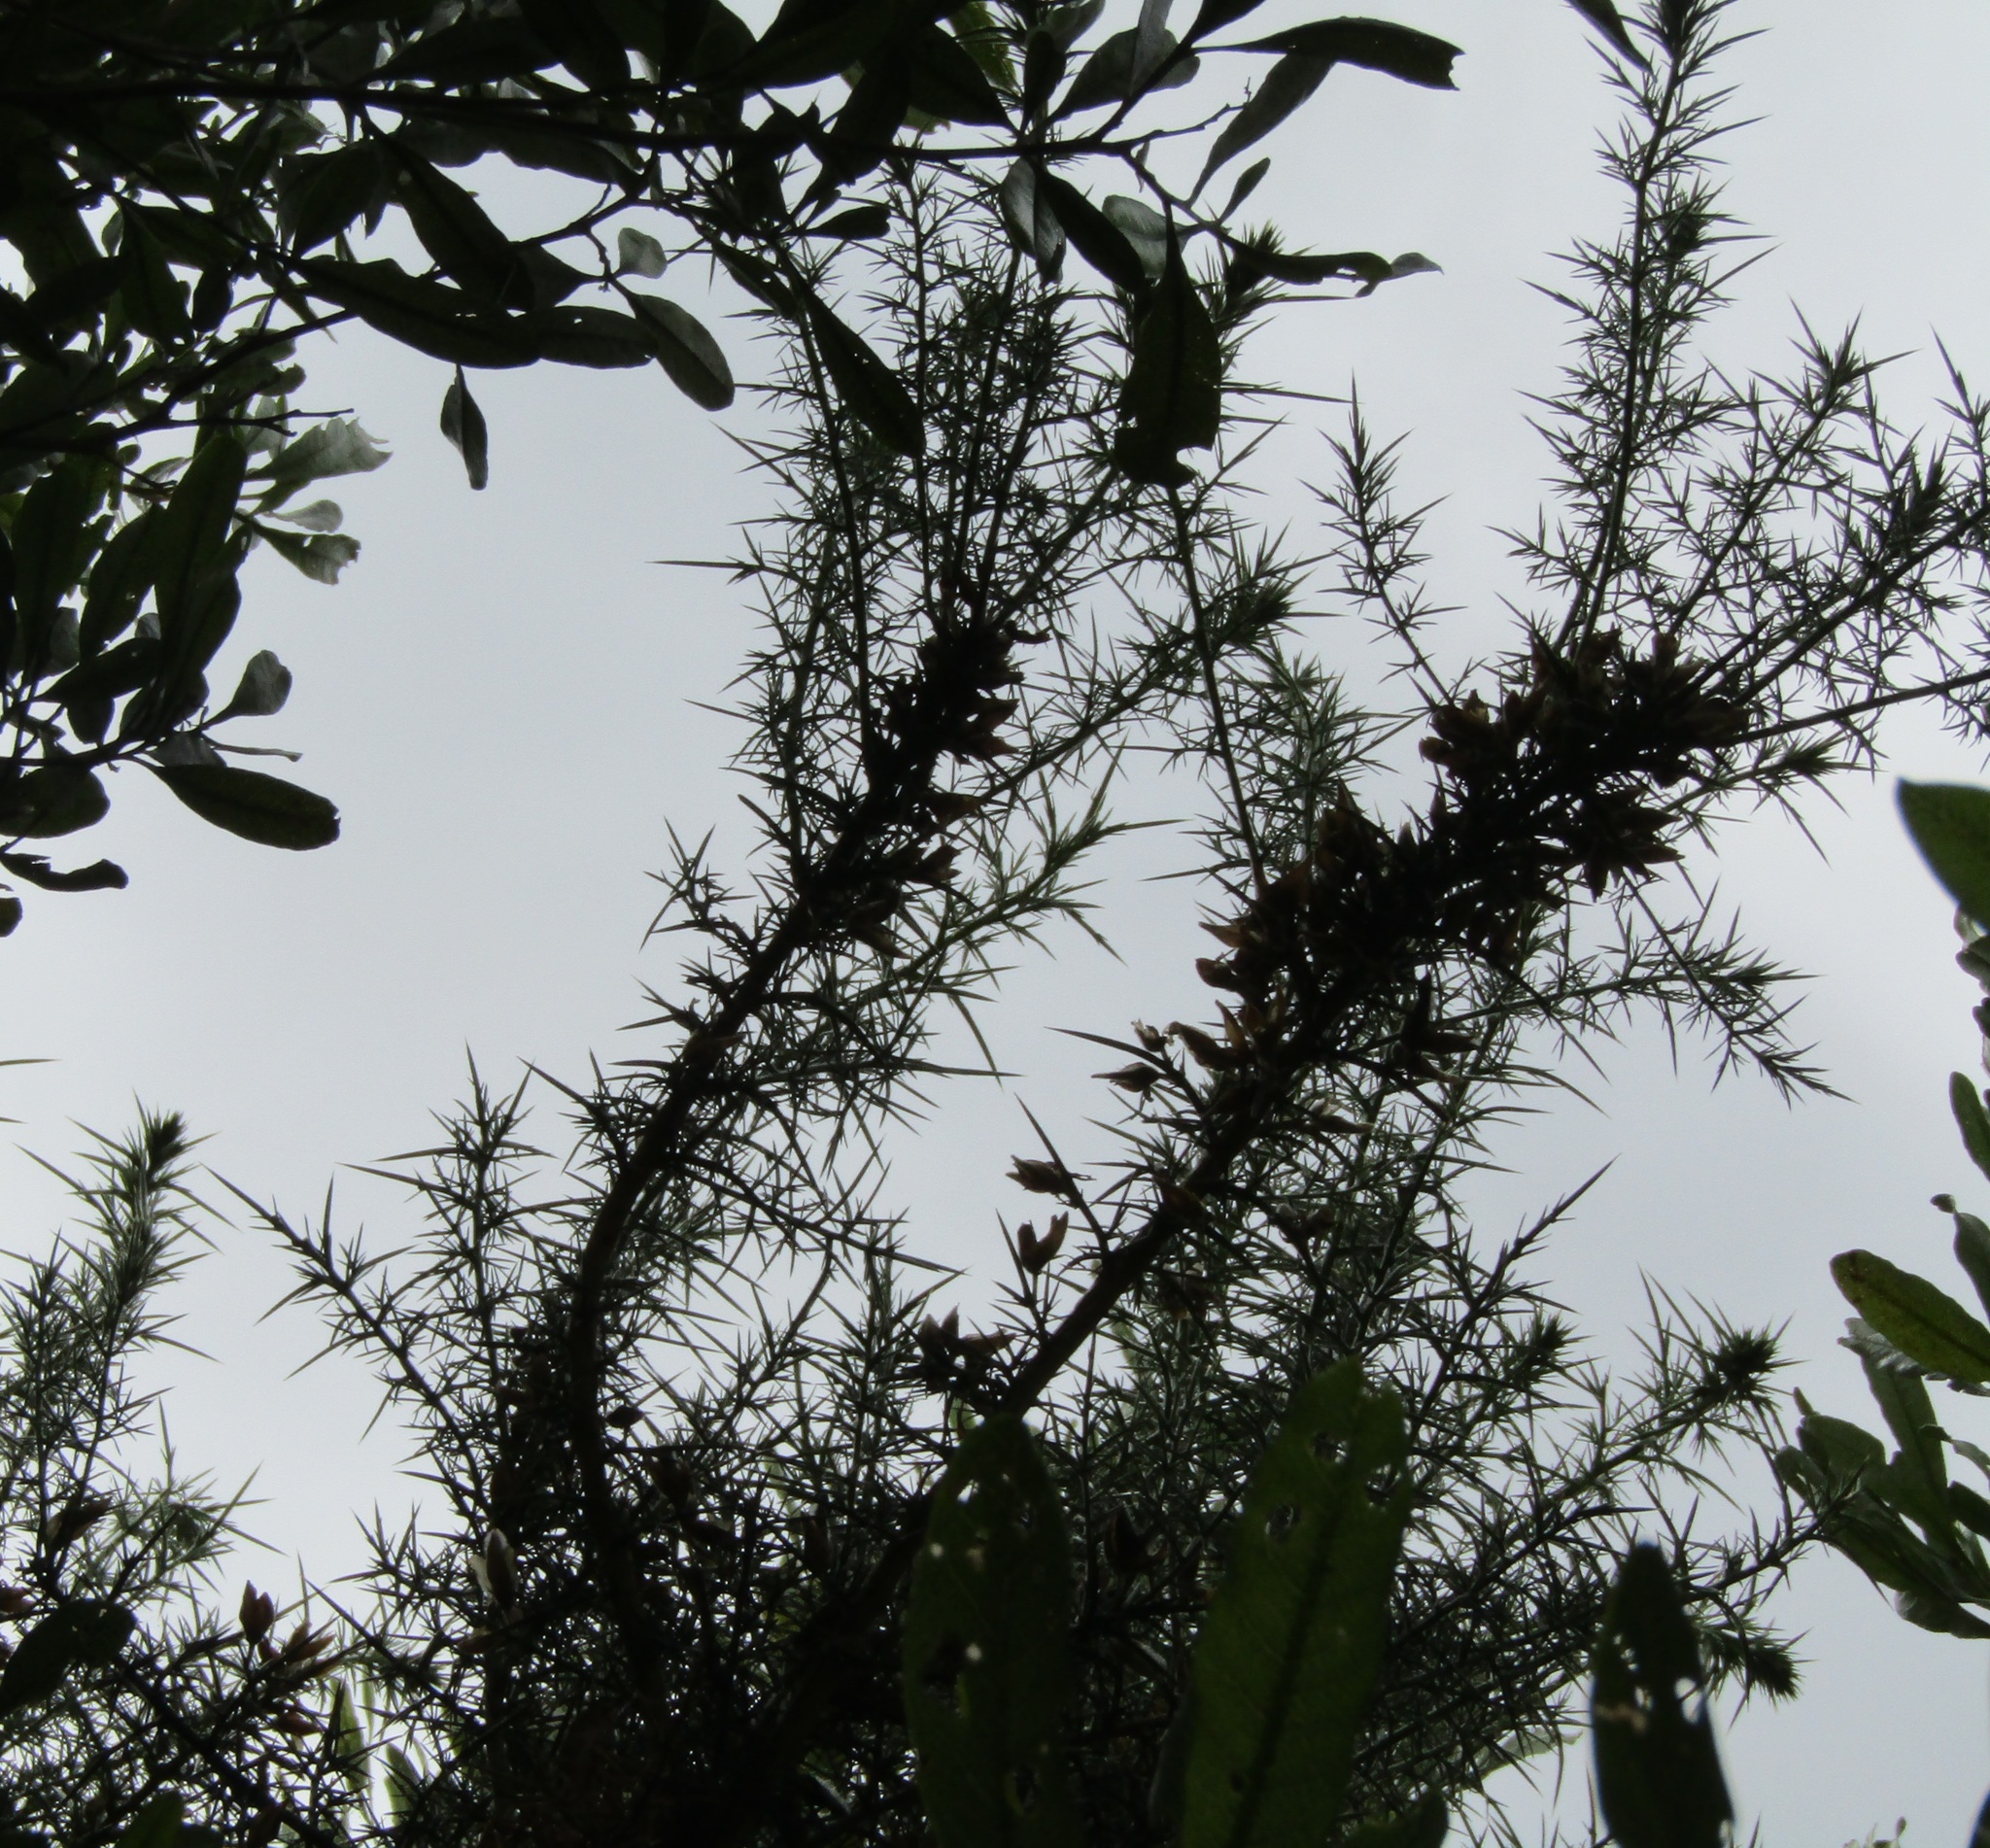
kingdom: Plantae
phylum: Tracheophyta
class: Magnoliopsida
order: Fabales
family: Fabaceae
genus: Ulex
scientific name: Ulex europaeus
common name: Common gorse
